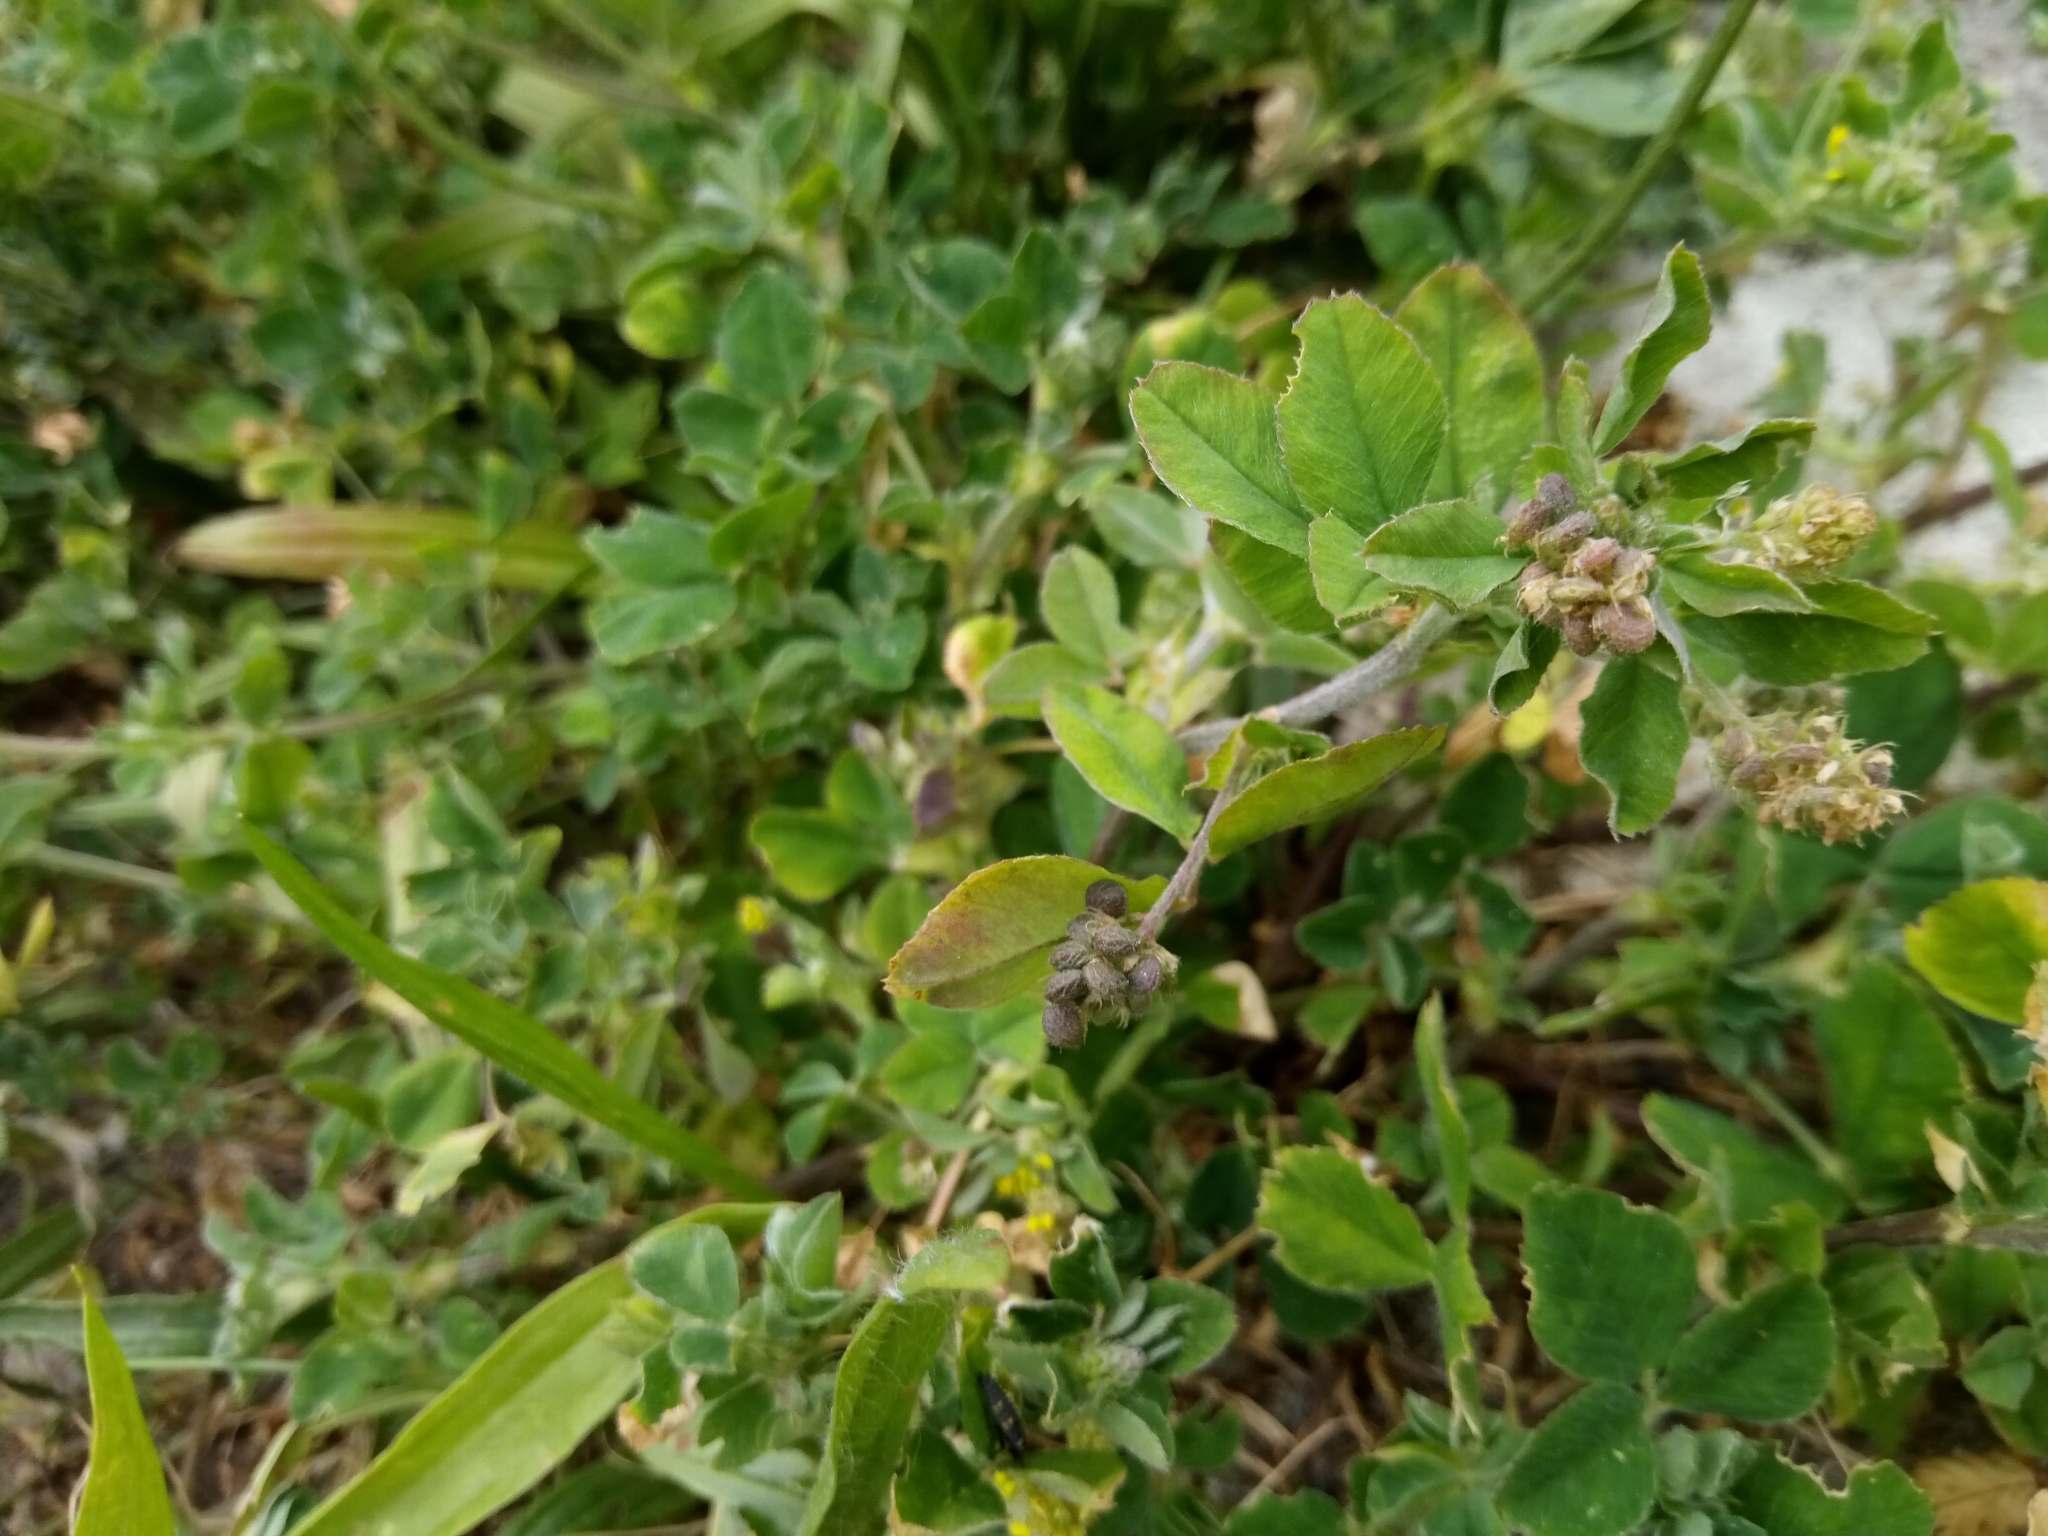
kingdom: Plantae
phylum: Tracheophyta
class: Magnoliopsida
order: Fabales
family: Fabaceae
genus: Medicago
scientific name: Medicago lupulina
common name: Black medick
